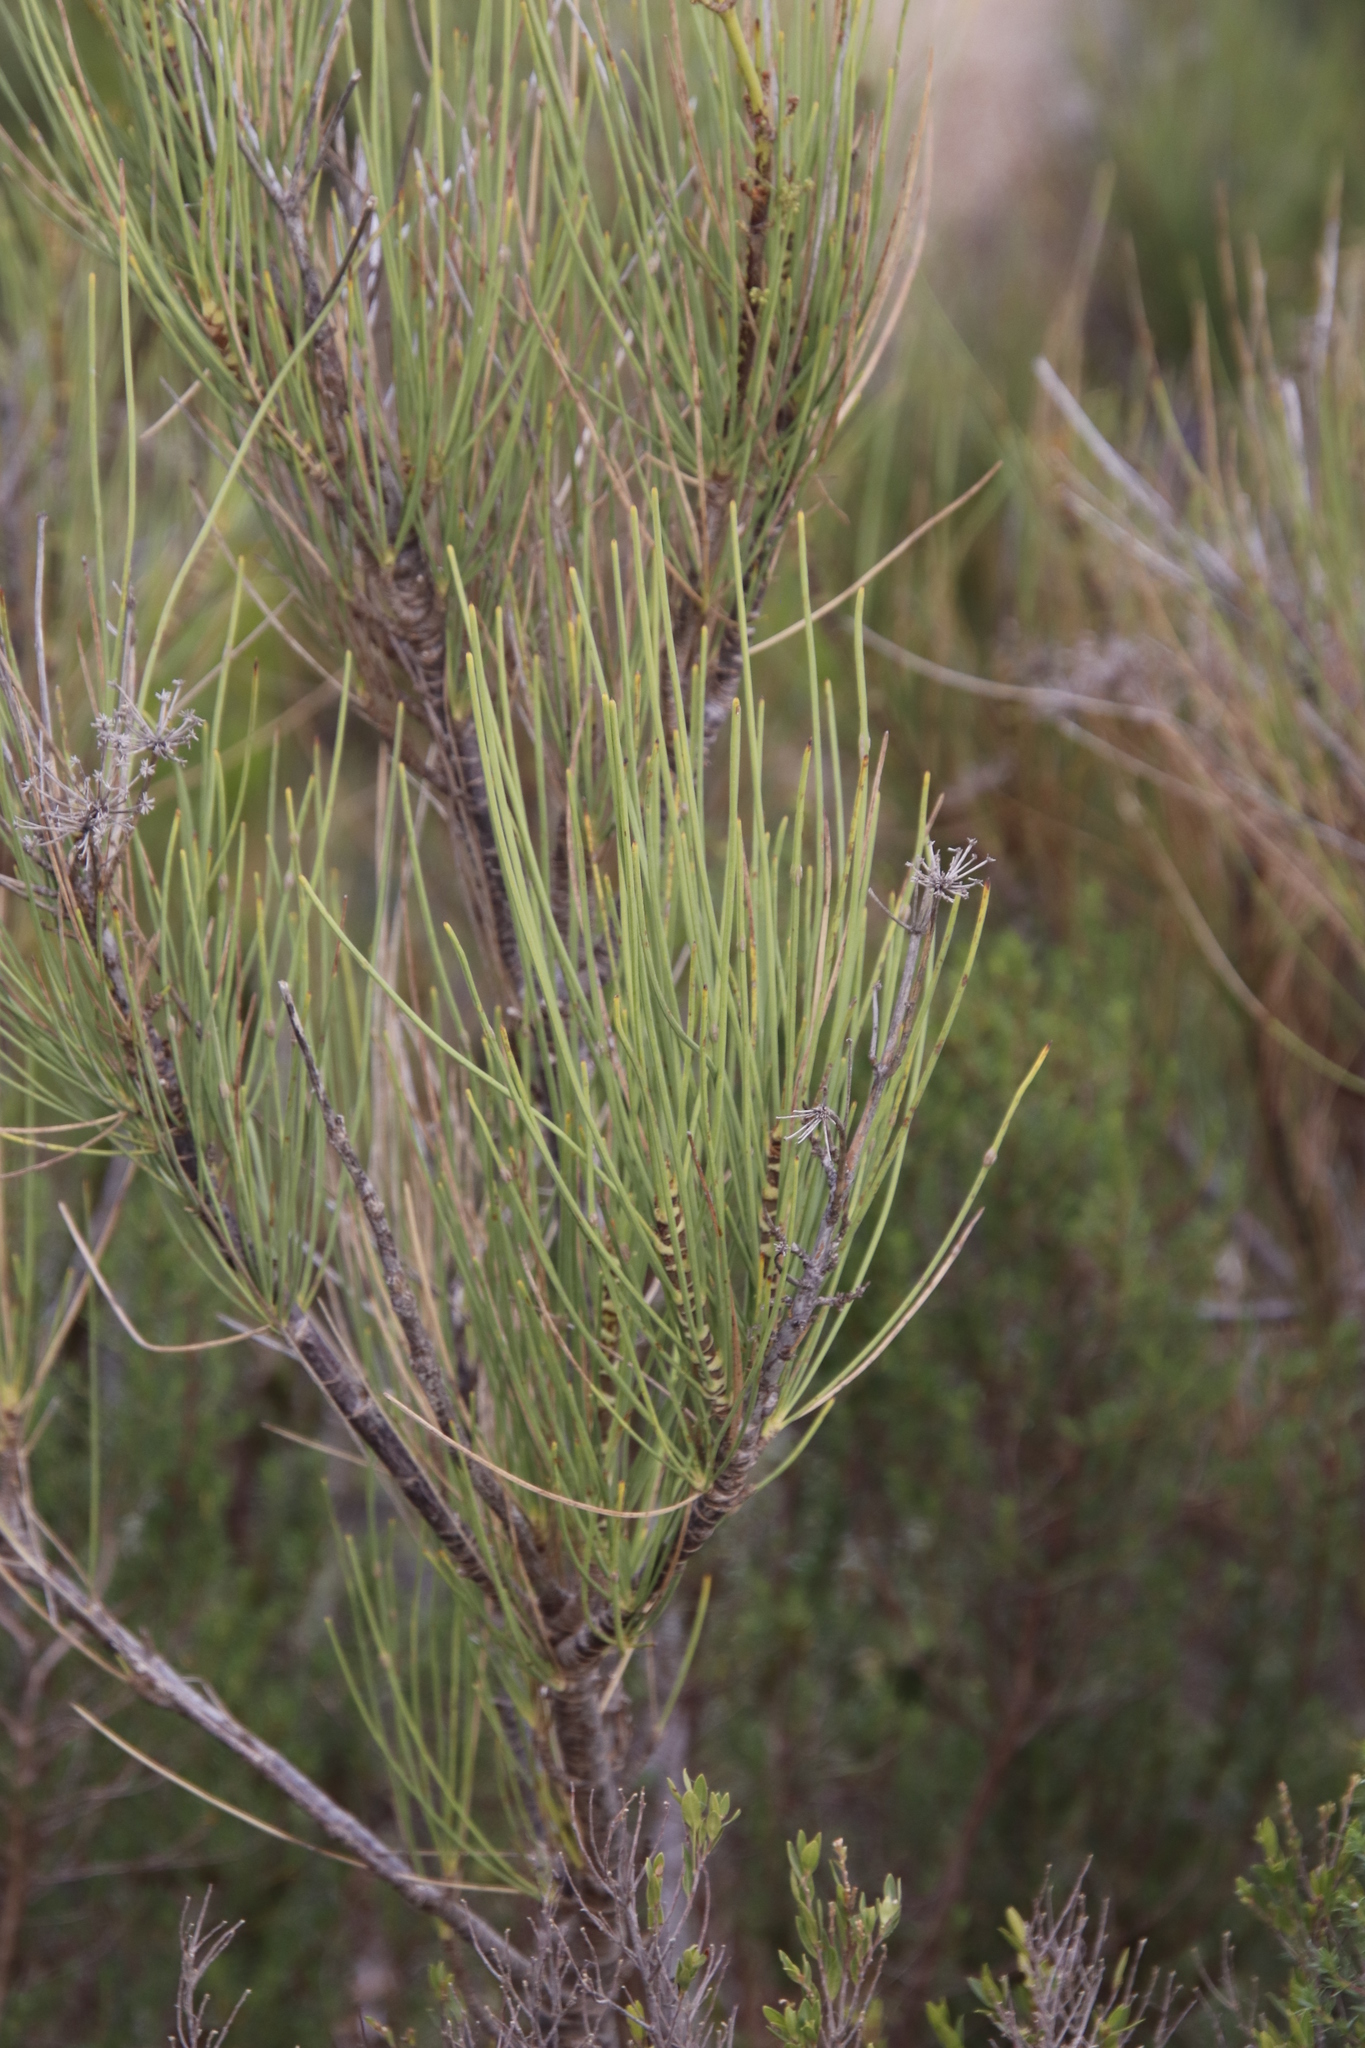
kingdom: Plantae
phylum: Tracheophyta
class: Magnoliopsida
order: Apiales
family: Apiaceae
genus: Anginon
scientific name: Anginon difforme
